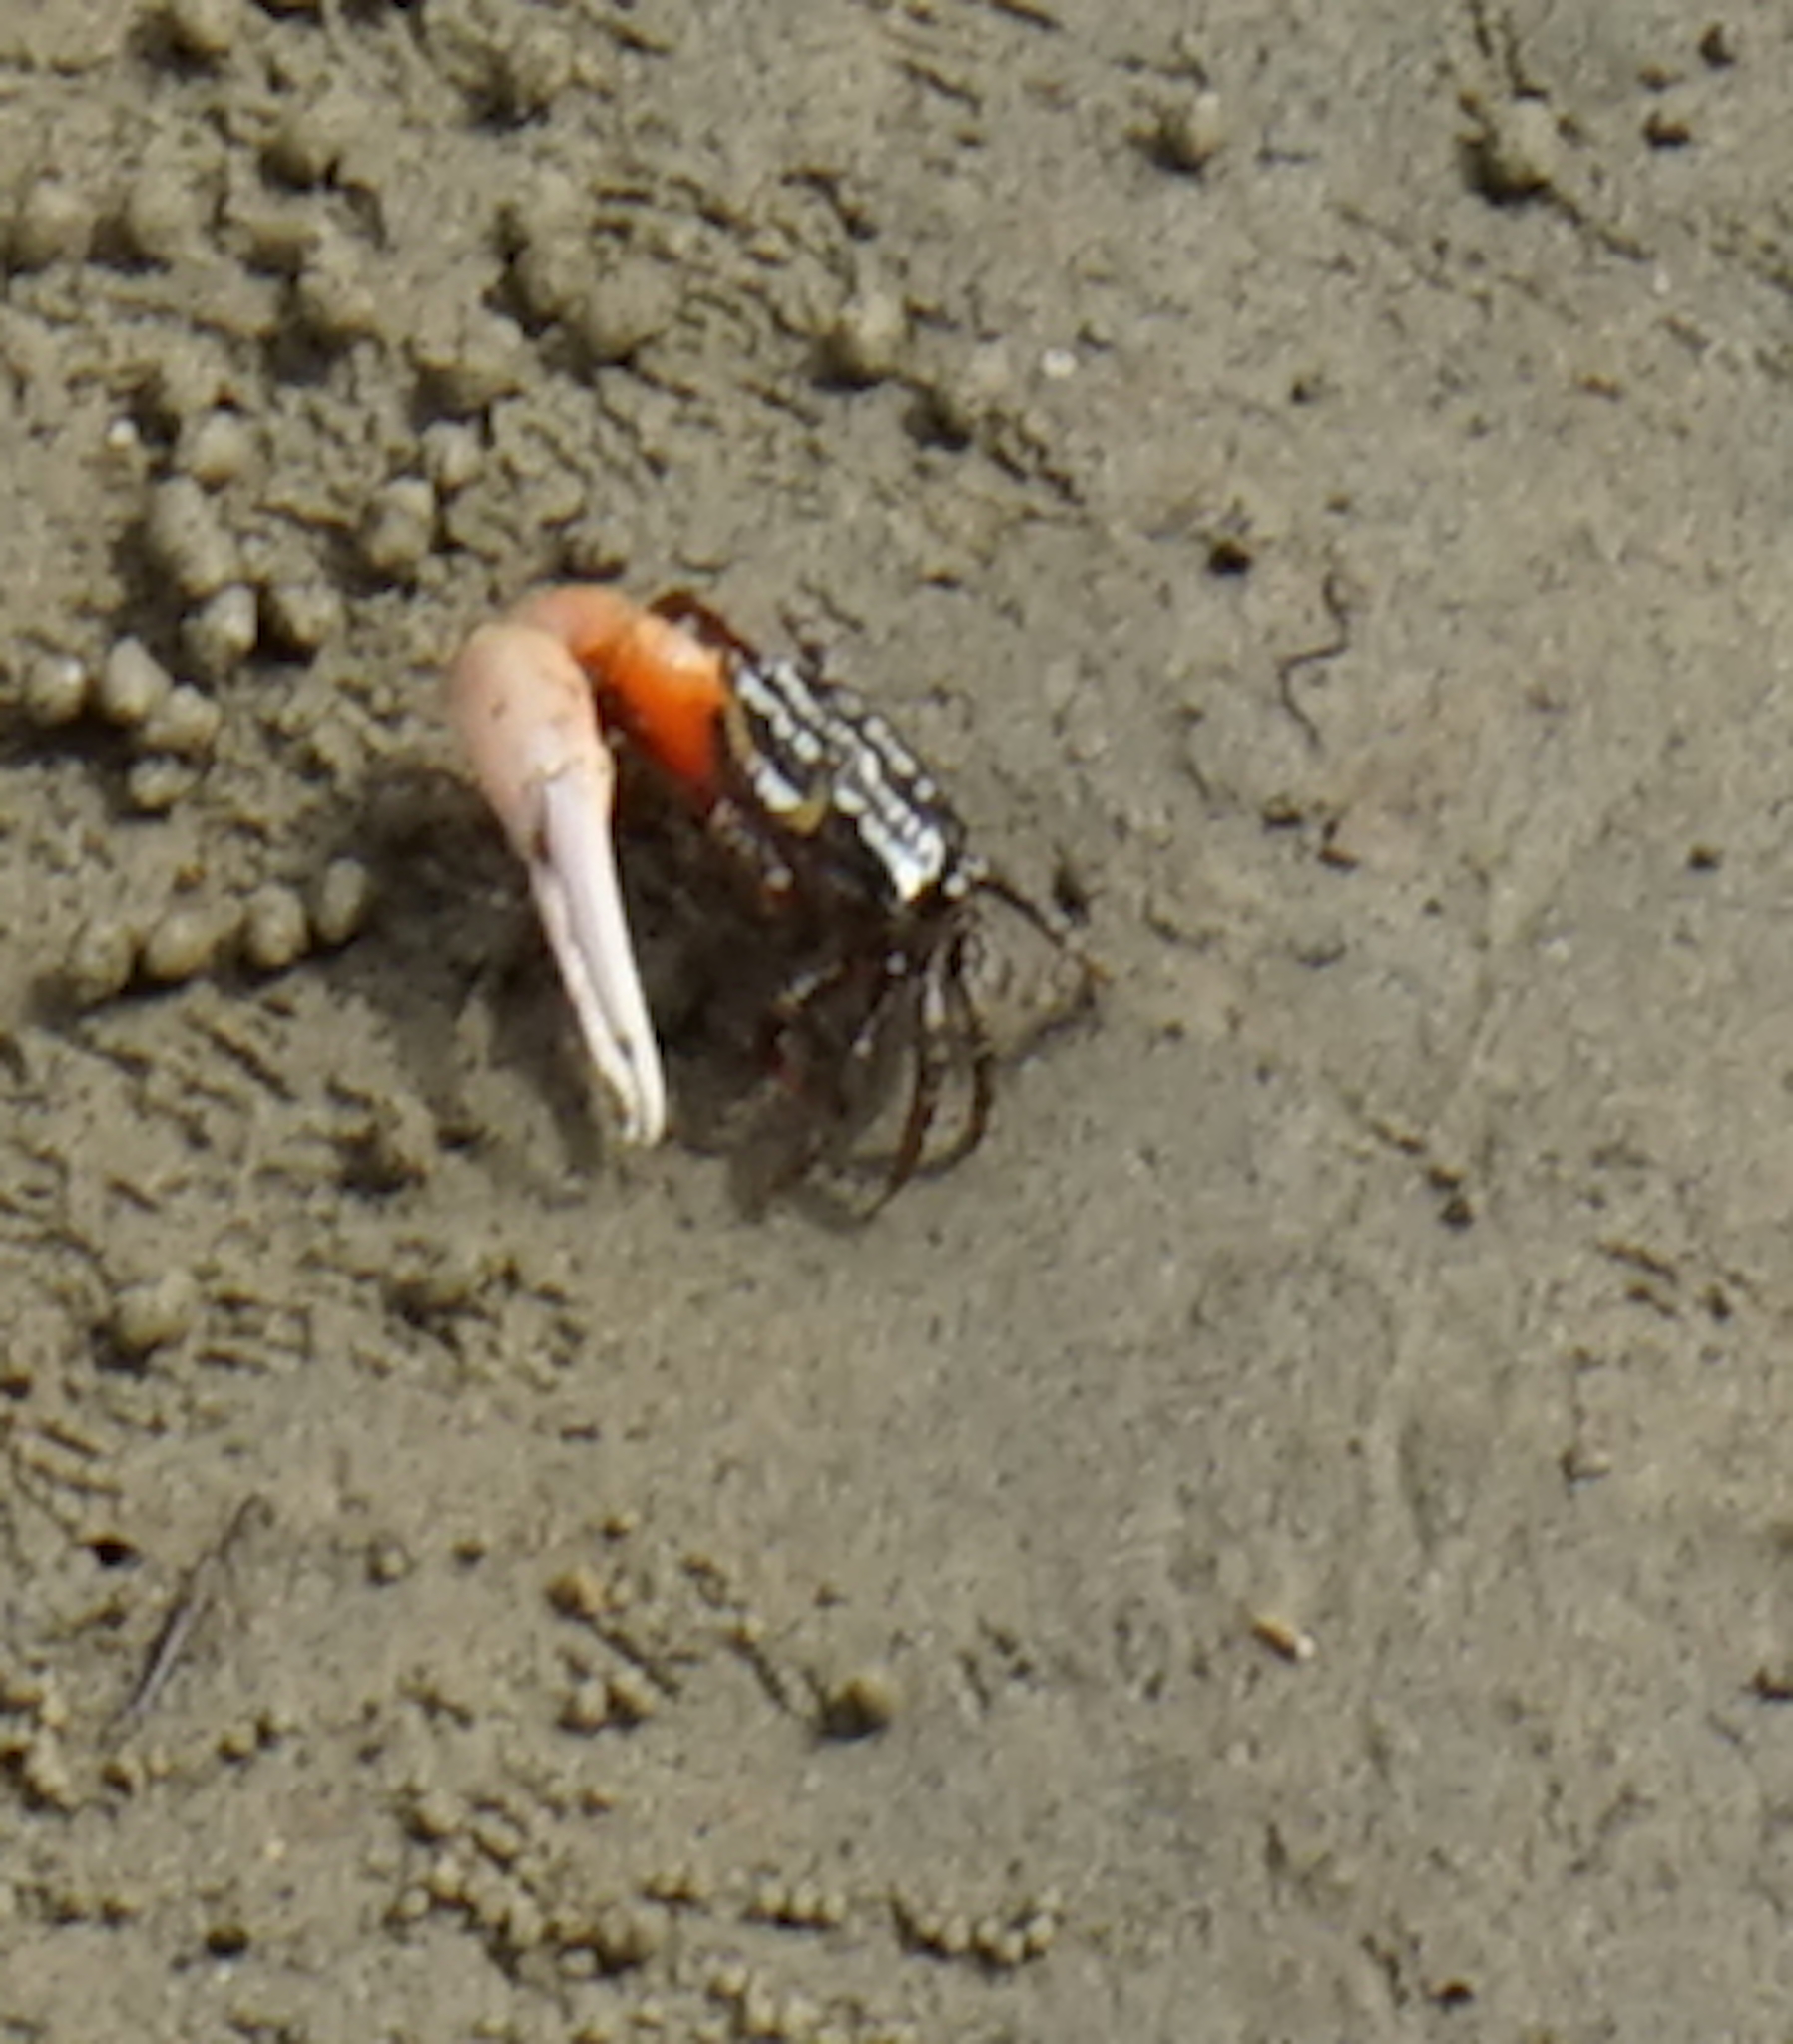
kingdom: Animalia
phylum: Arthropoda
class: Malacostraca
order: Decapoda
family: Ocypodidae
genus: Austruca
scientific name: Austruca annulipes
